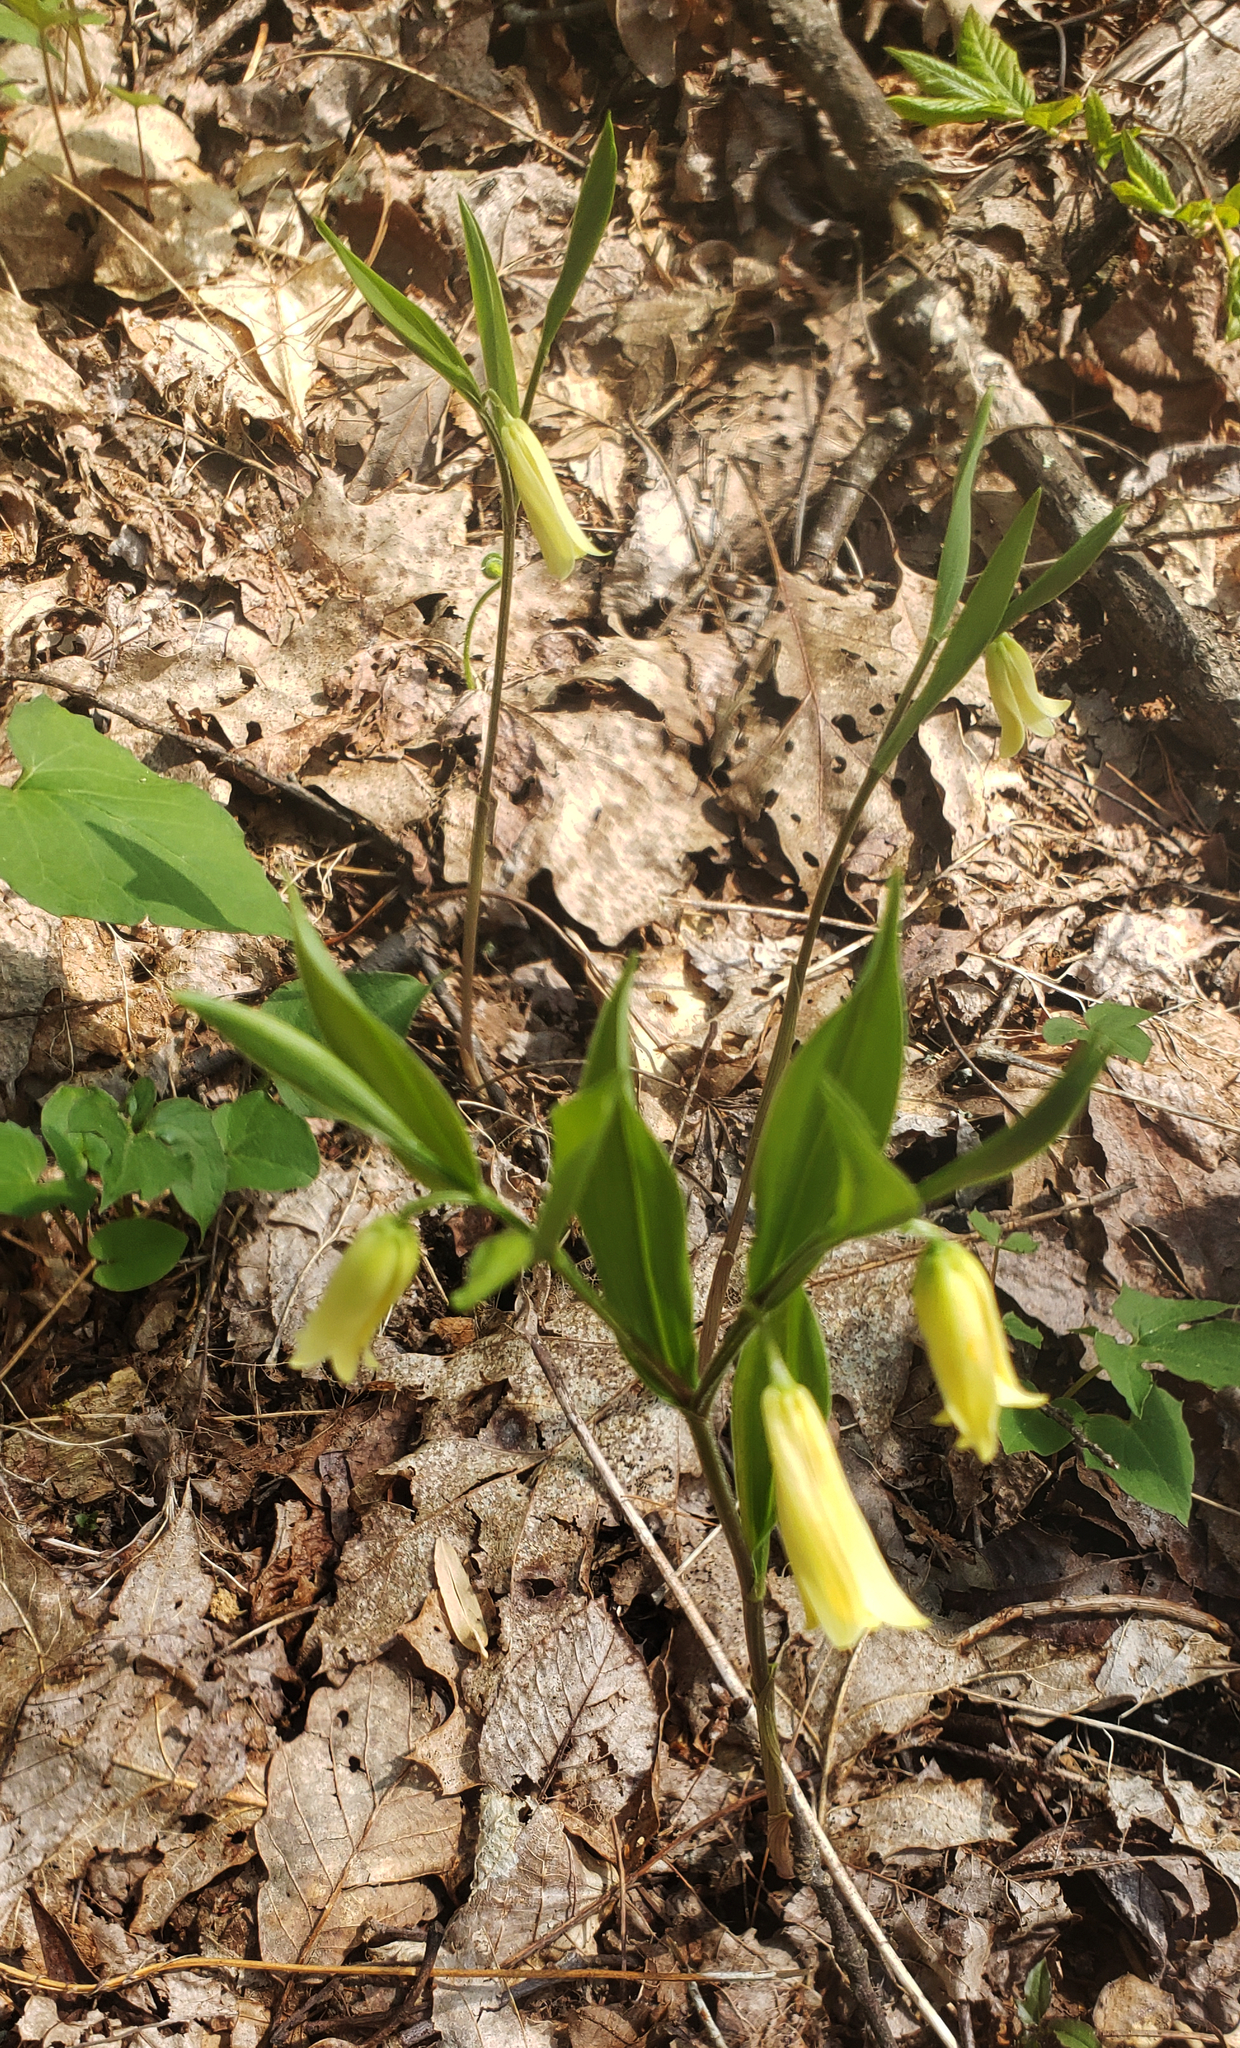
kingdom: Plantae
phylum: Tracheophyta
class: Liliopsida
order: Liliales
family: Colchicaceae
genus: Uvularia
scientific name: Uvularia puberula
